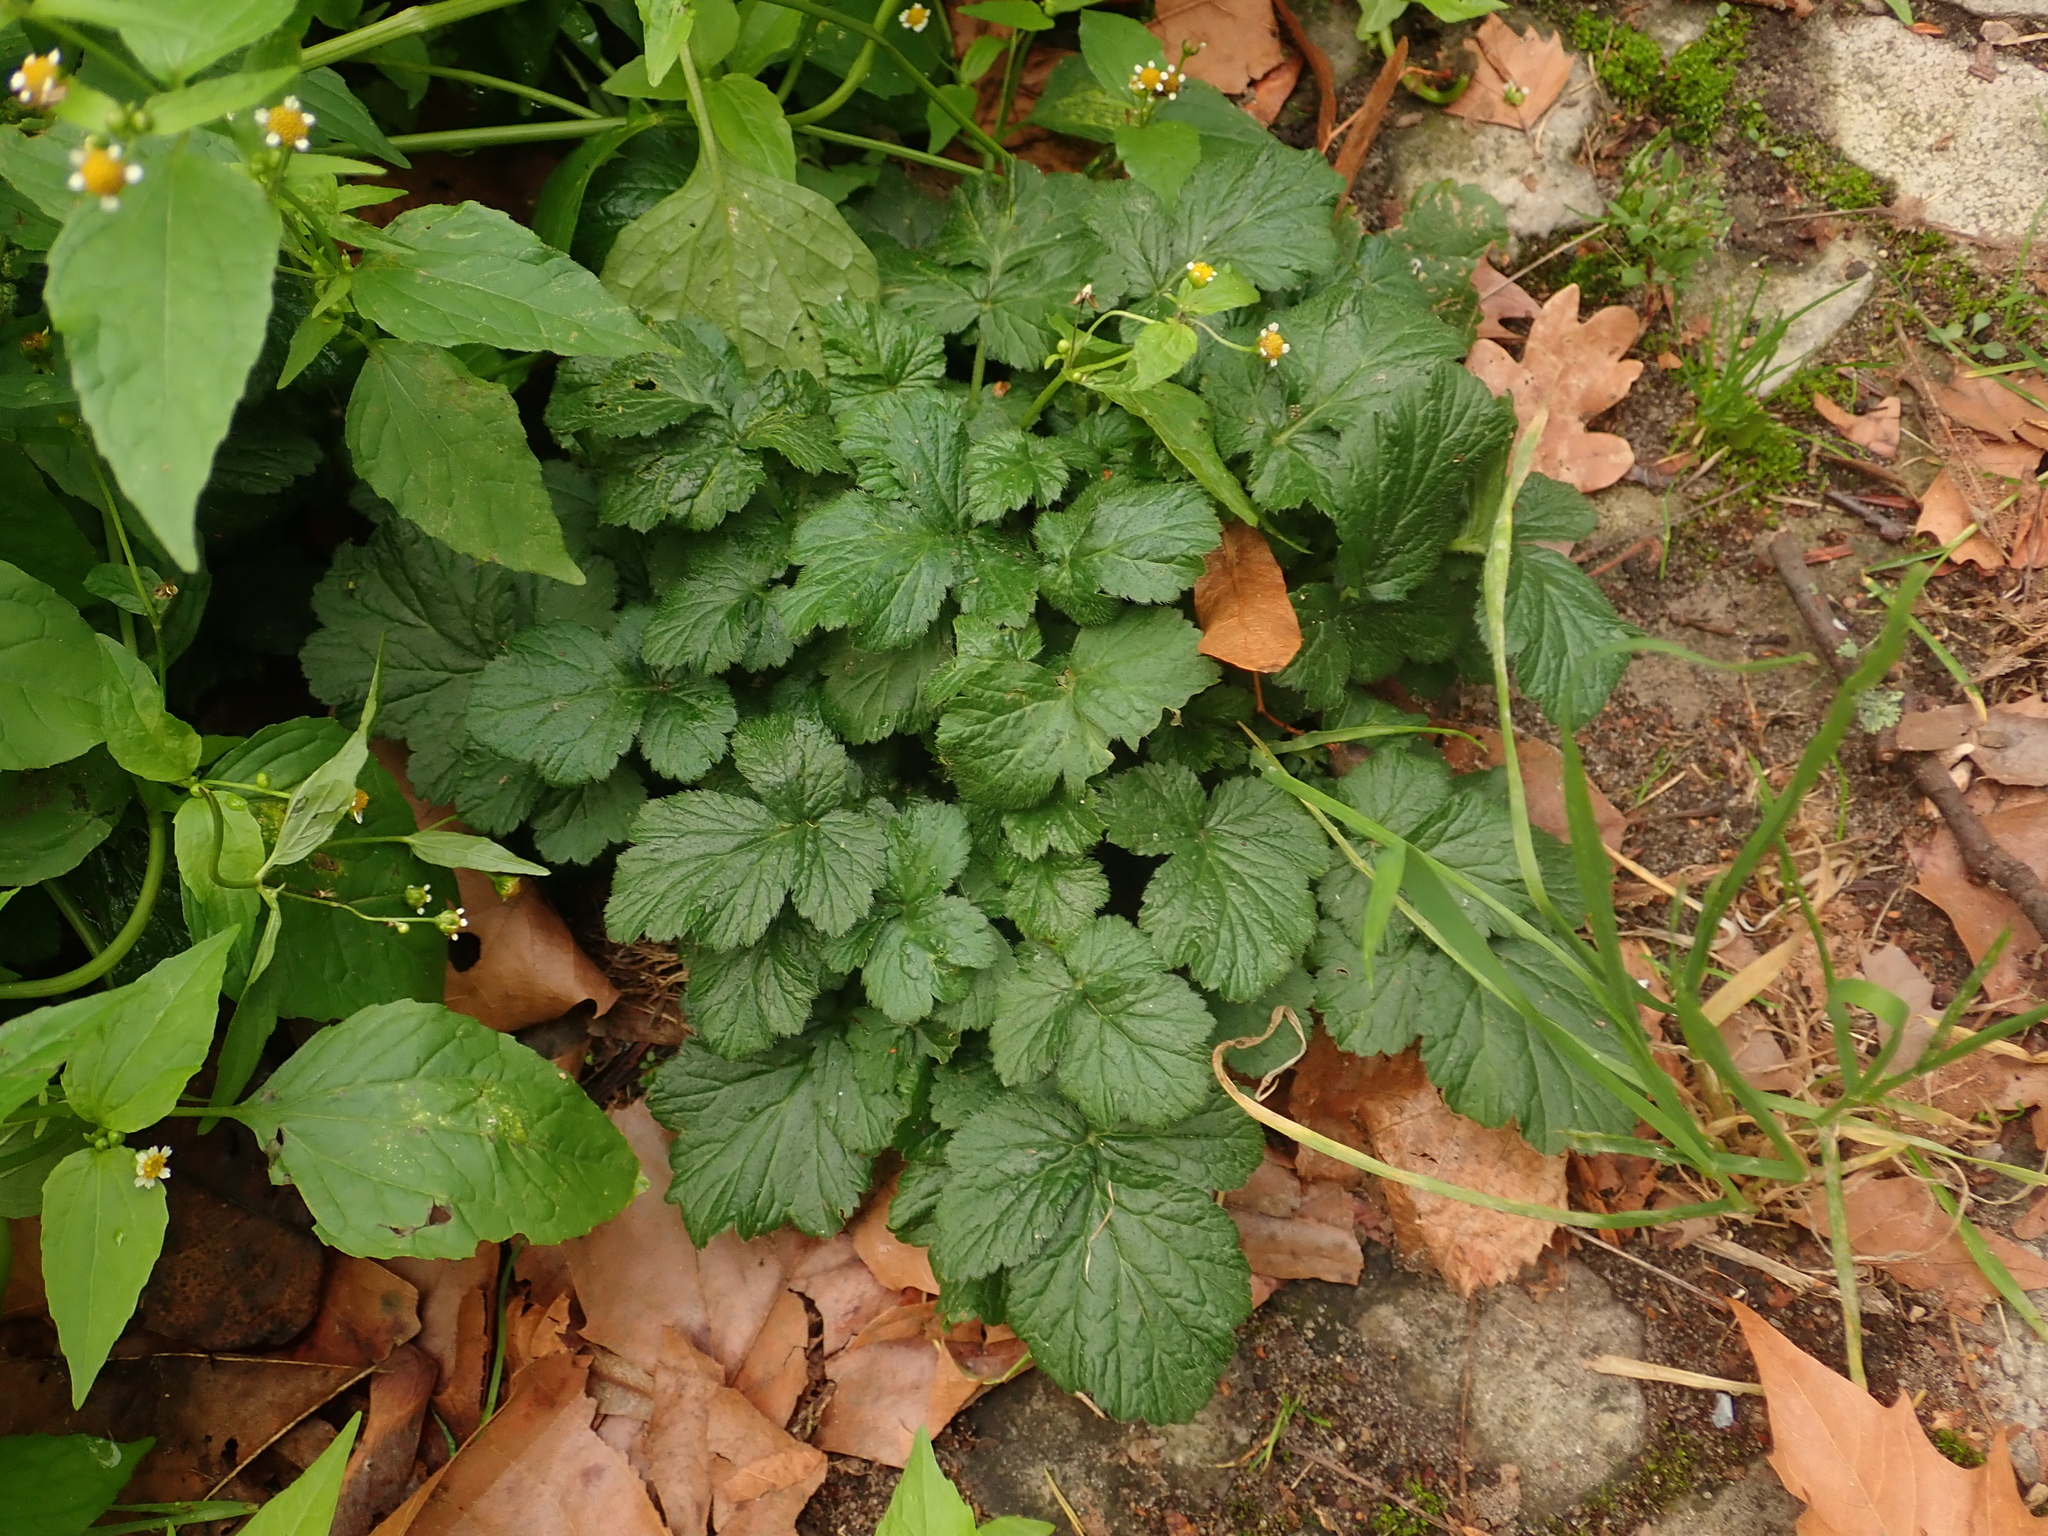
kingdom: Plantae
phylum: Tracheophyta
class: Magnoliopsida
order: Rosales
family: Rosaceae
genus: Geum
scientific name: Geum urbanum
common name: Wood avens
